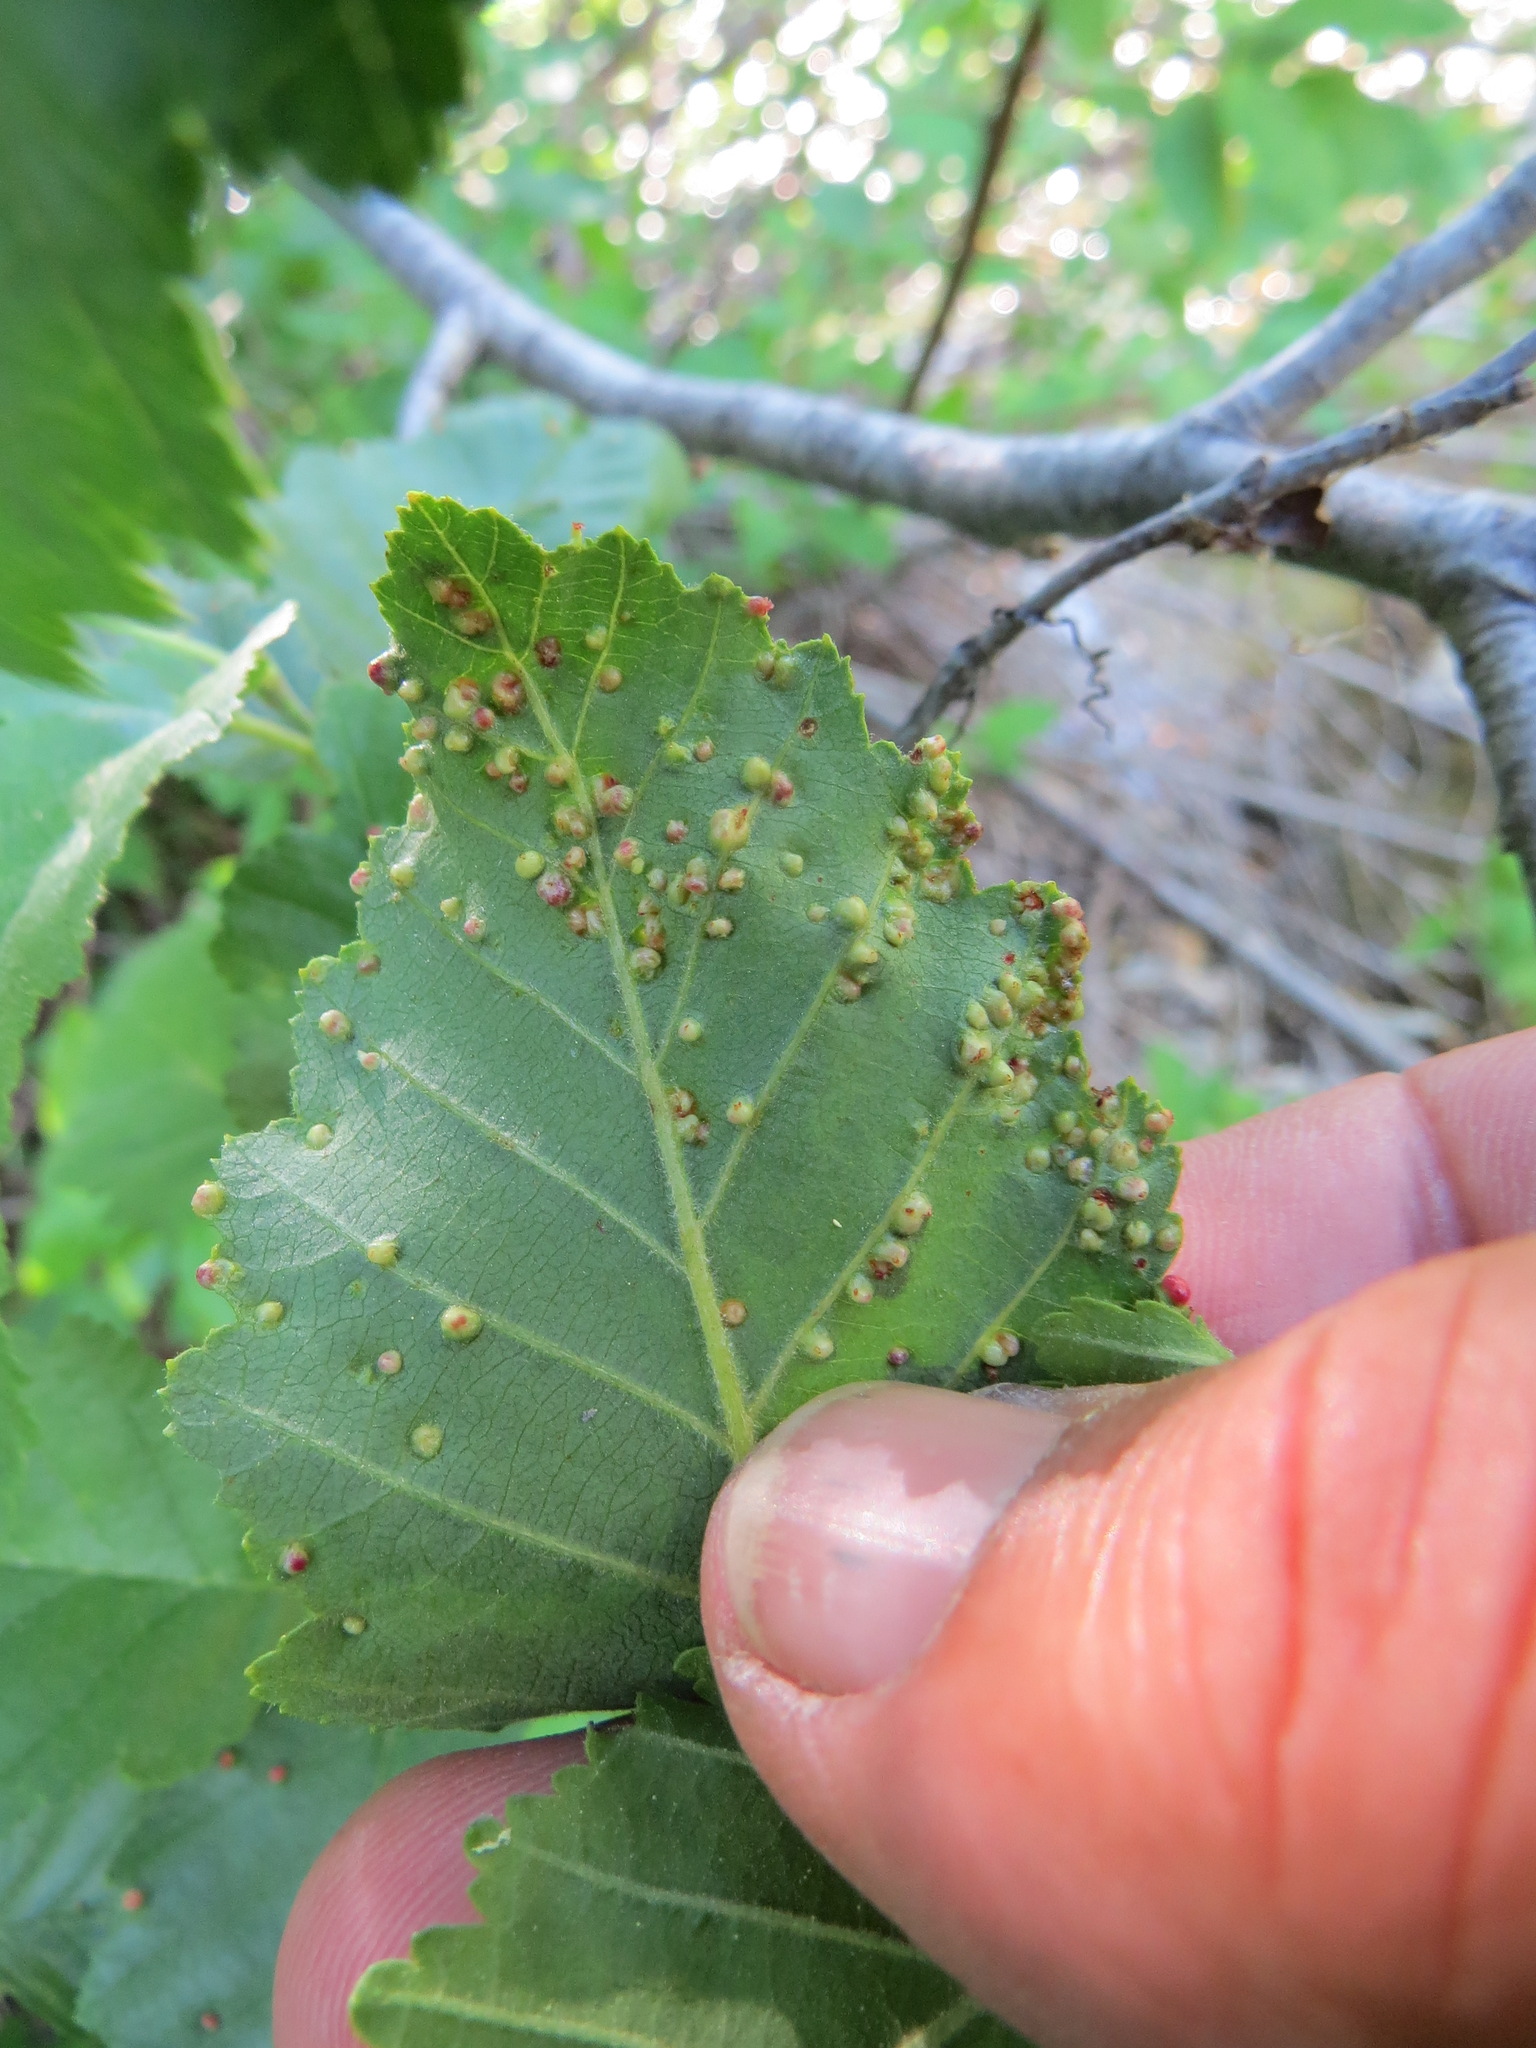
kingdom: Animalia
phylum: Arthropoda
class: Arachnida
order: Trombidiformes
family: Eriophyidae
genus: Eriophyes
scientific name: Eriophyes laevis
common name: Alder leaf gall mite
